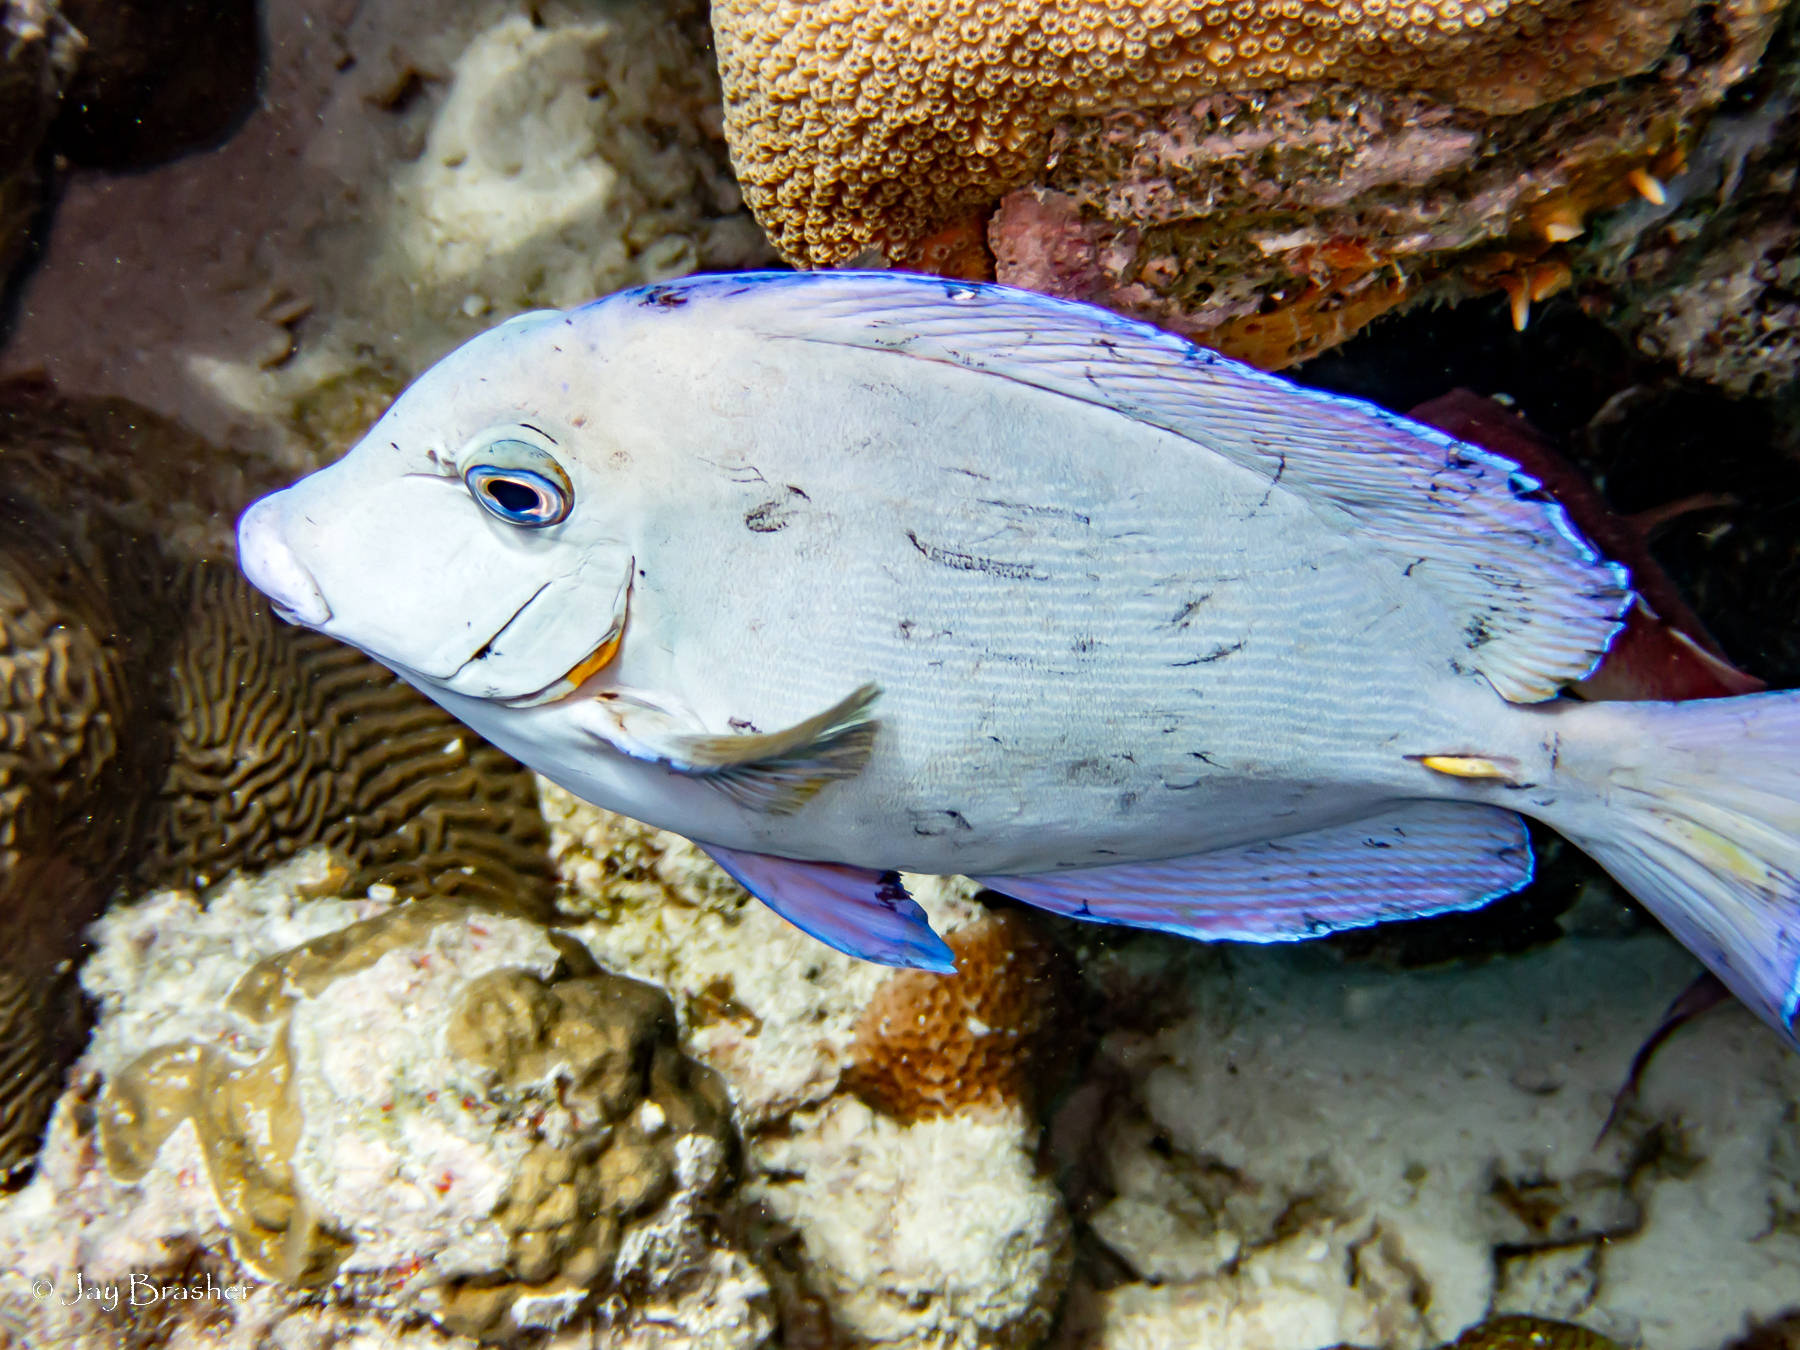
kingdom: Animalia
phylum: Chordata
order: Perciformes
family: Acanthuridae
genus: Acanthurus
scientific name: Acanthurus coeruleus
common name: Blue tang
